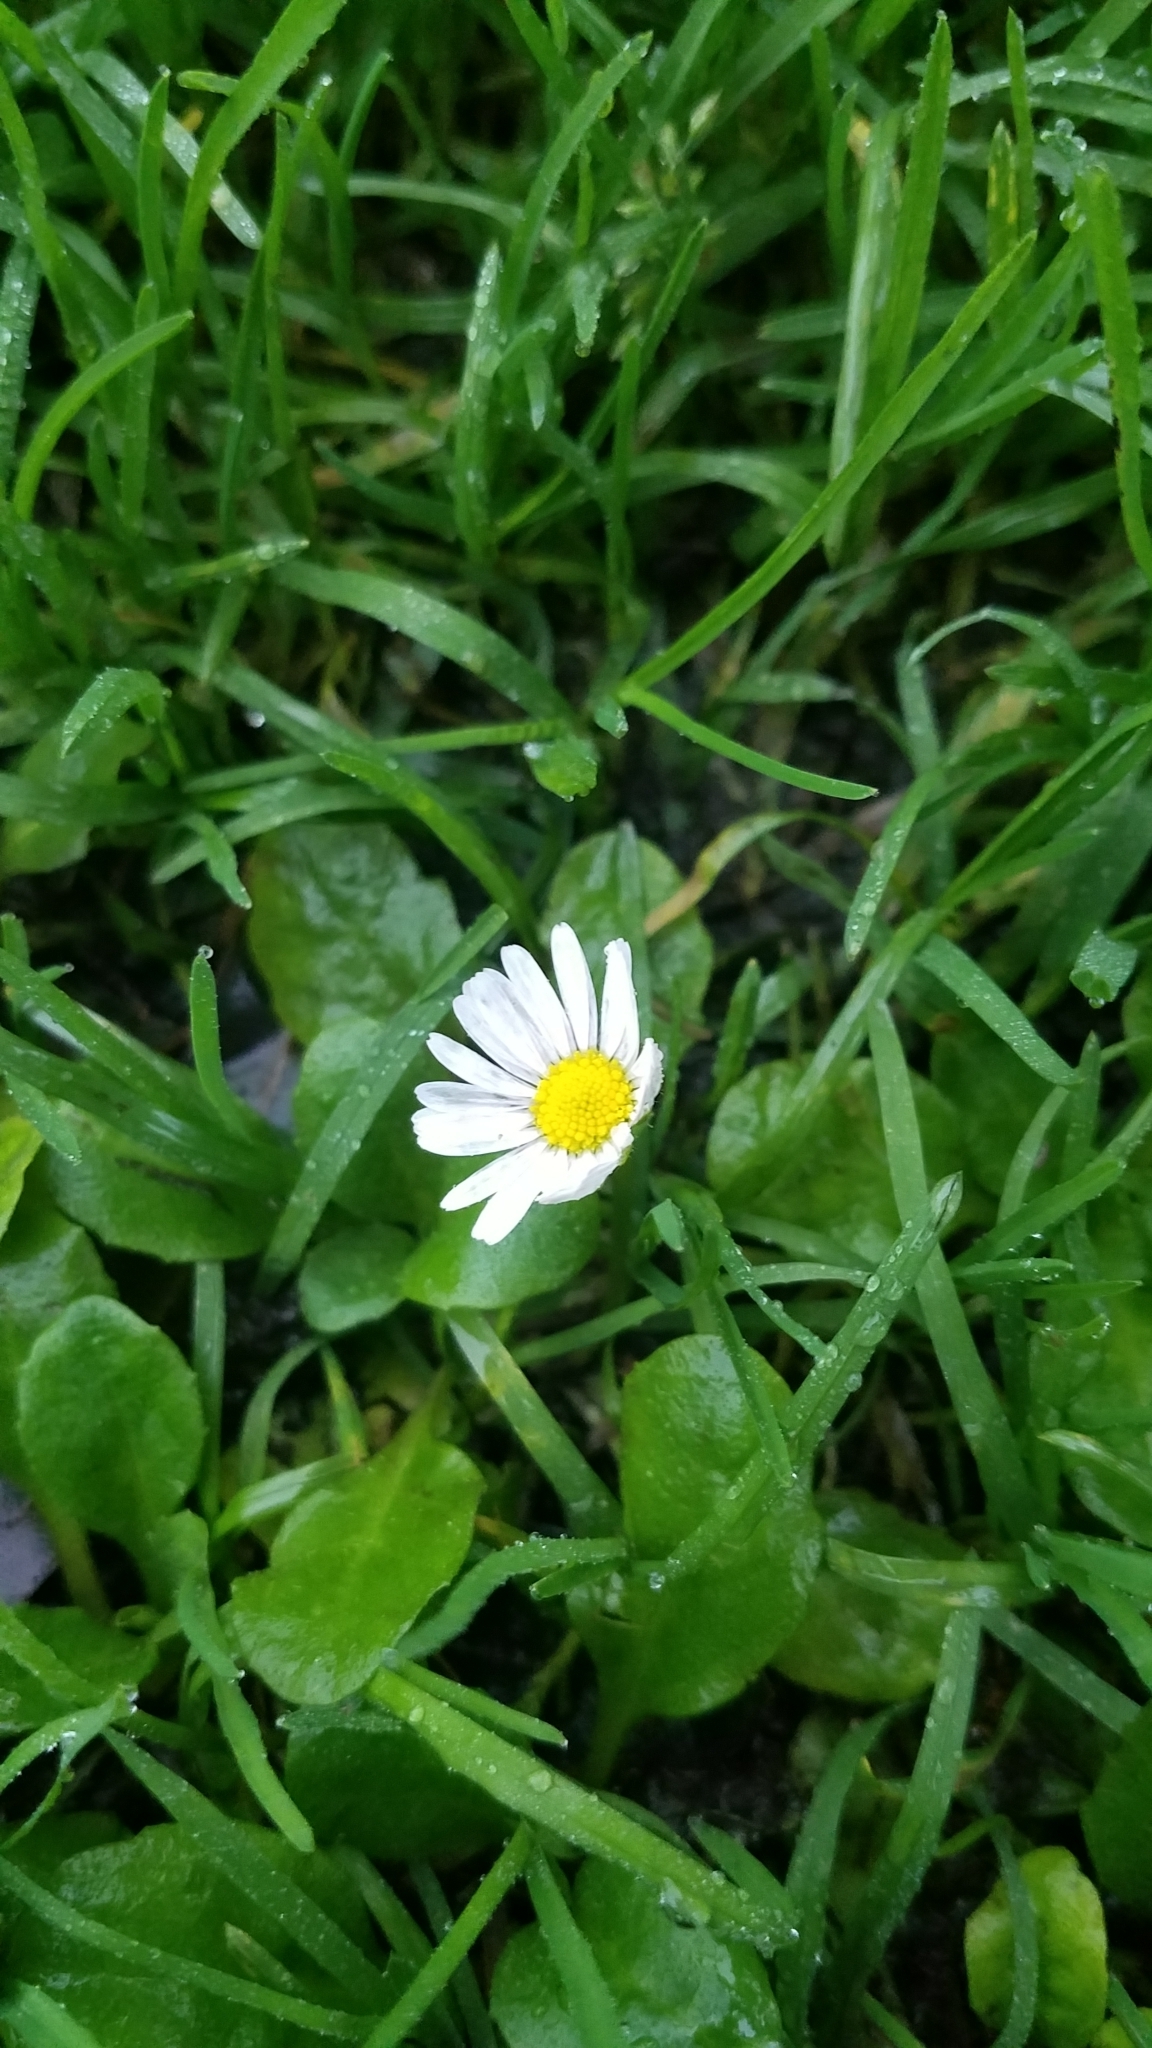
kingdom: Plantae
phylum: Tracheophyta
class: Magnoliopsida
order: Asterales
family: Asteraceae
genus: Bellis
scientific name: Bellis perennis
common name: Lawndaisy
